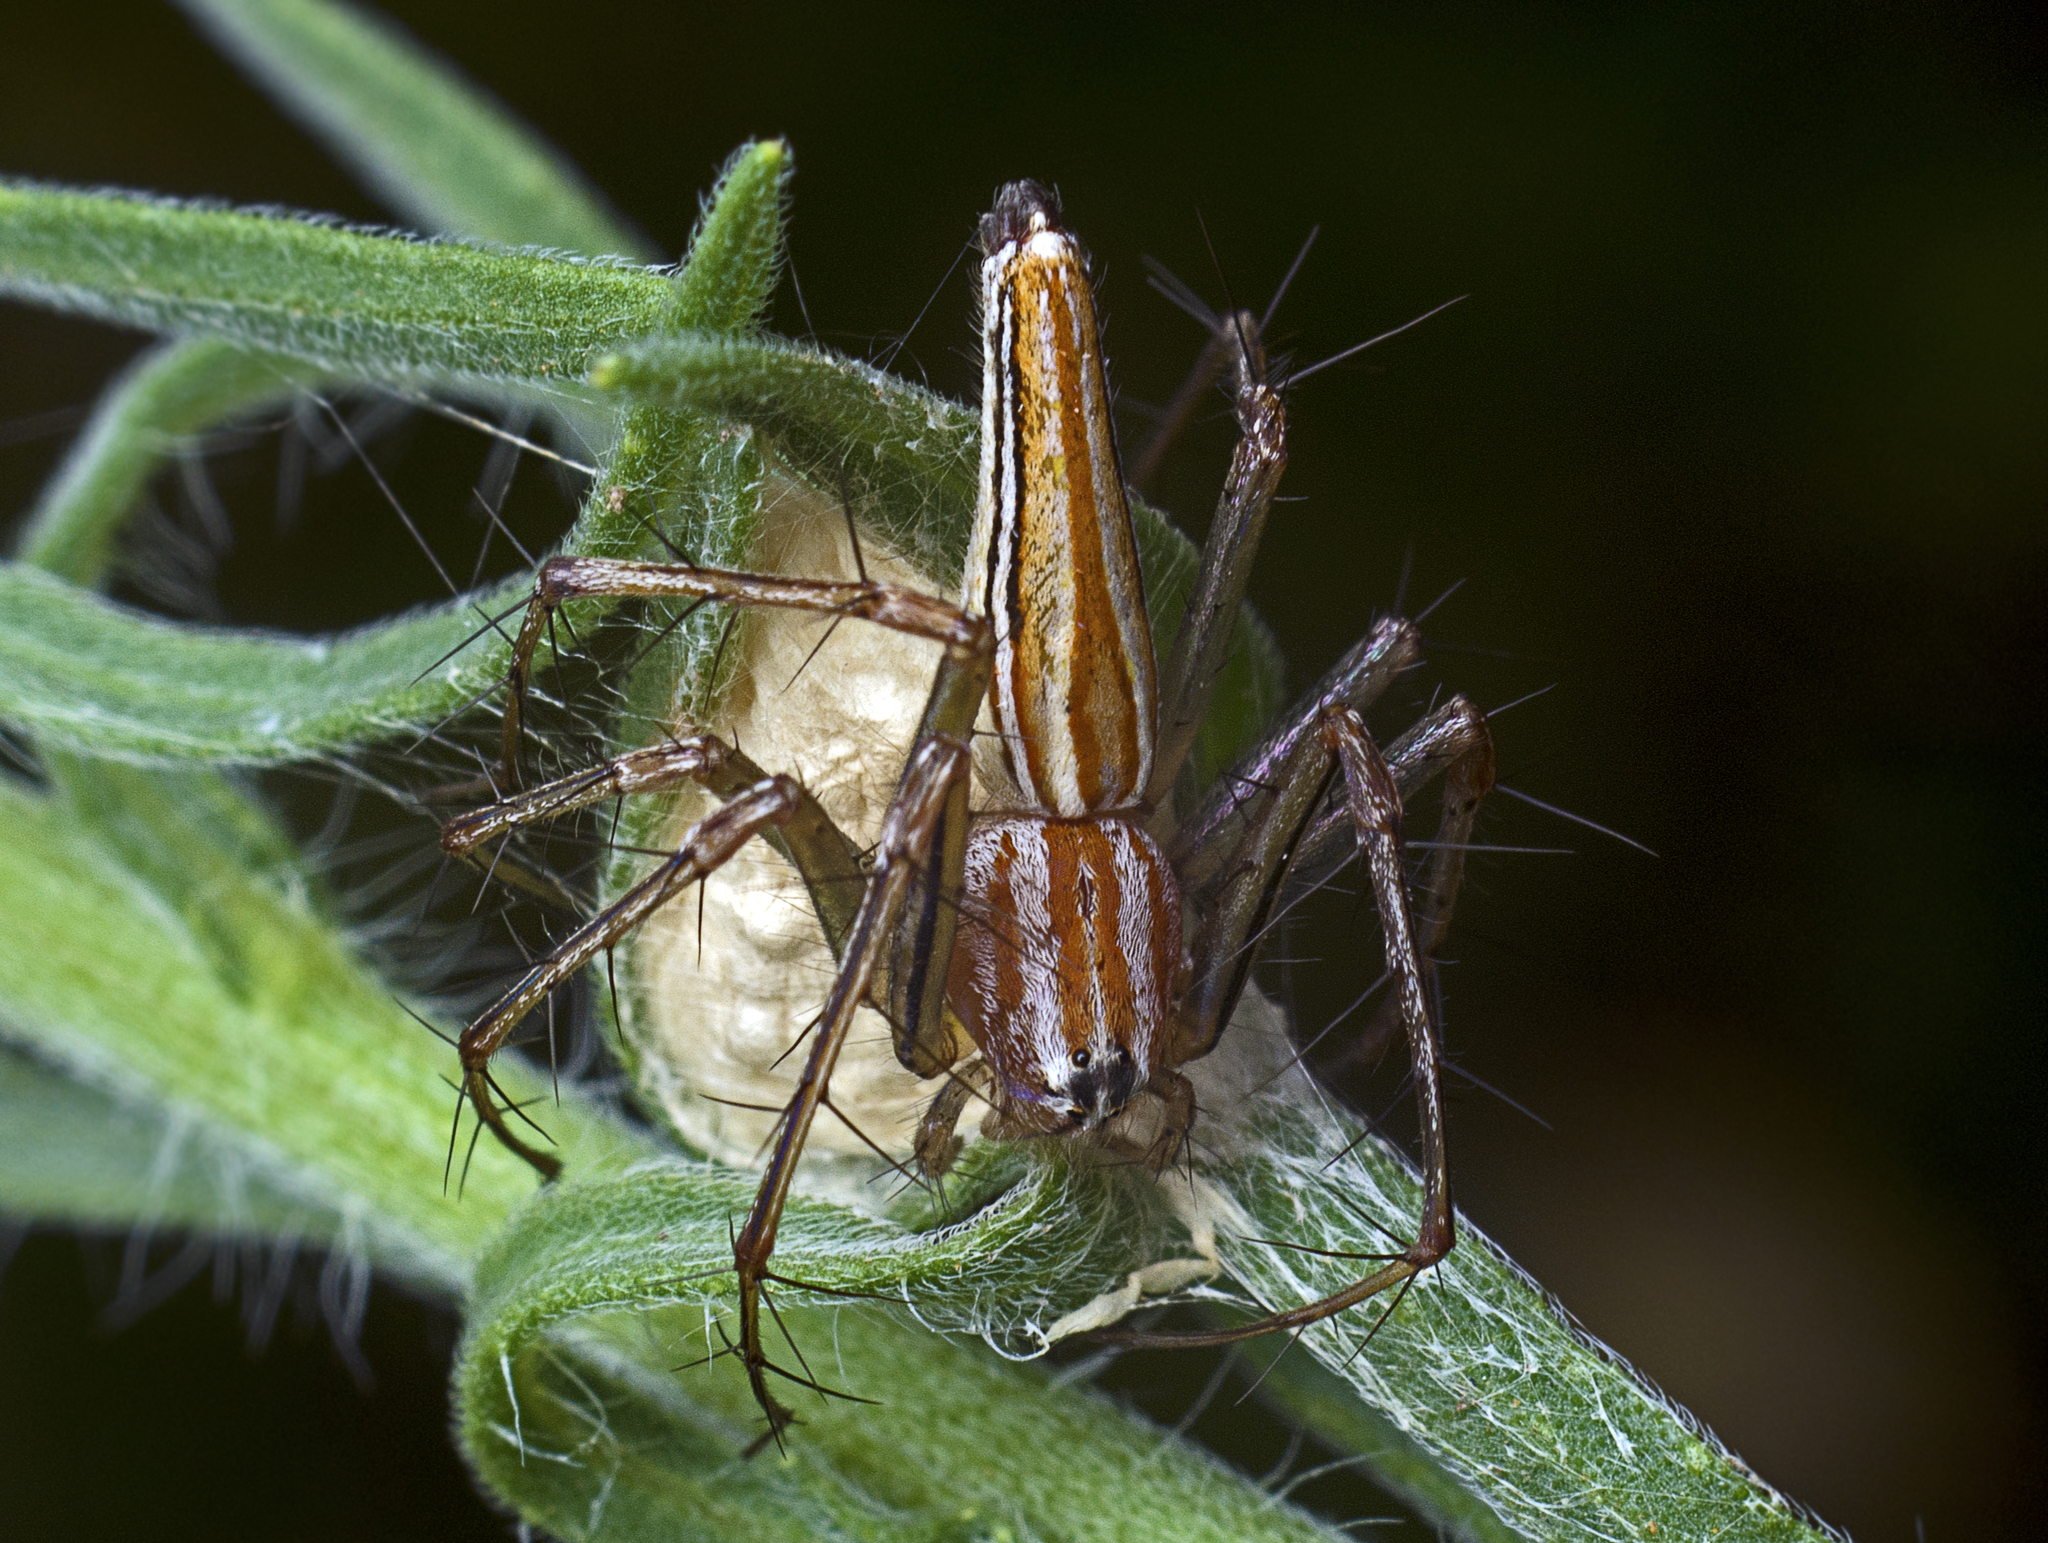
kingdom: Animalia
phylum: Arthropoda
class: Arachnida
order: Araneae
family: Oxyopidae
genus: Oxyopes
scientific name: Oxyopes macilentus
